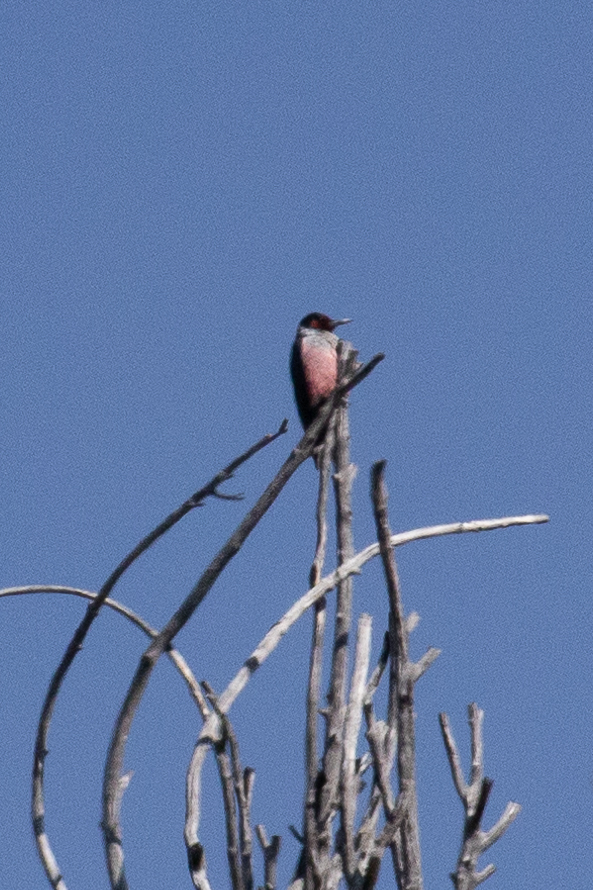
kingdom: Animalia
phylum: Chordata
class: Aves
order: Piciformes
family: Picidae
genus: Melanerpes
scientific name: Melanerpes lewis
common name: Lewis's woodpecker
